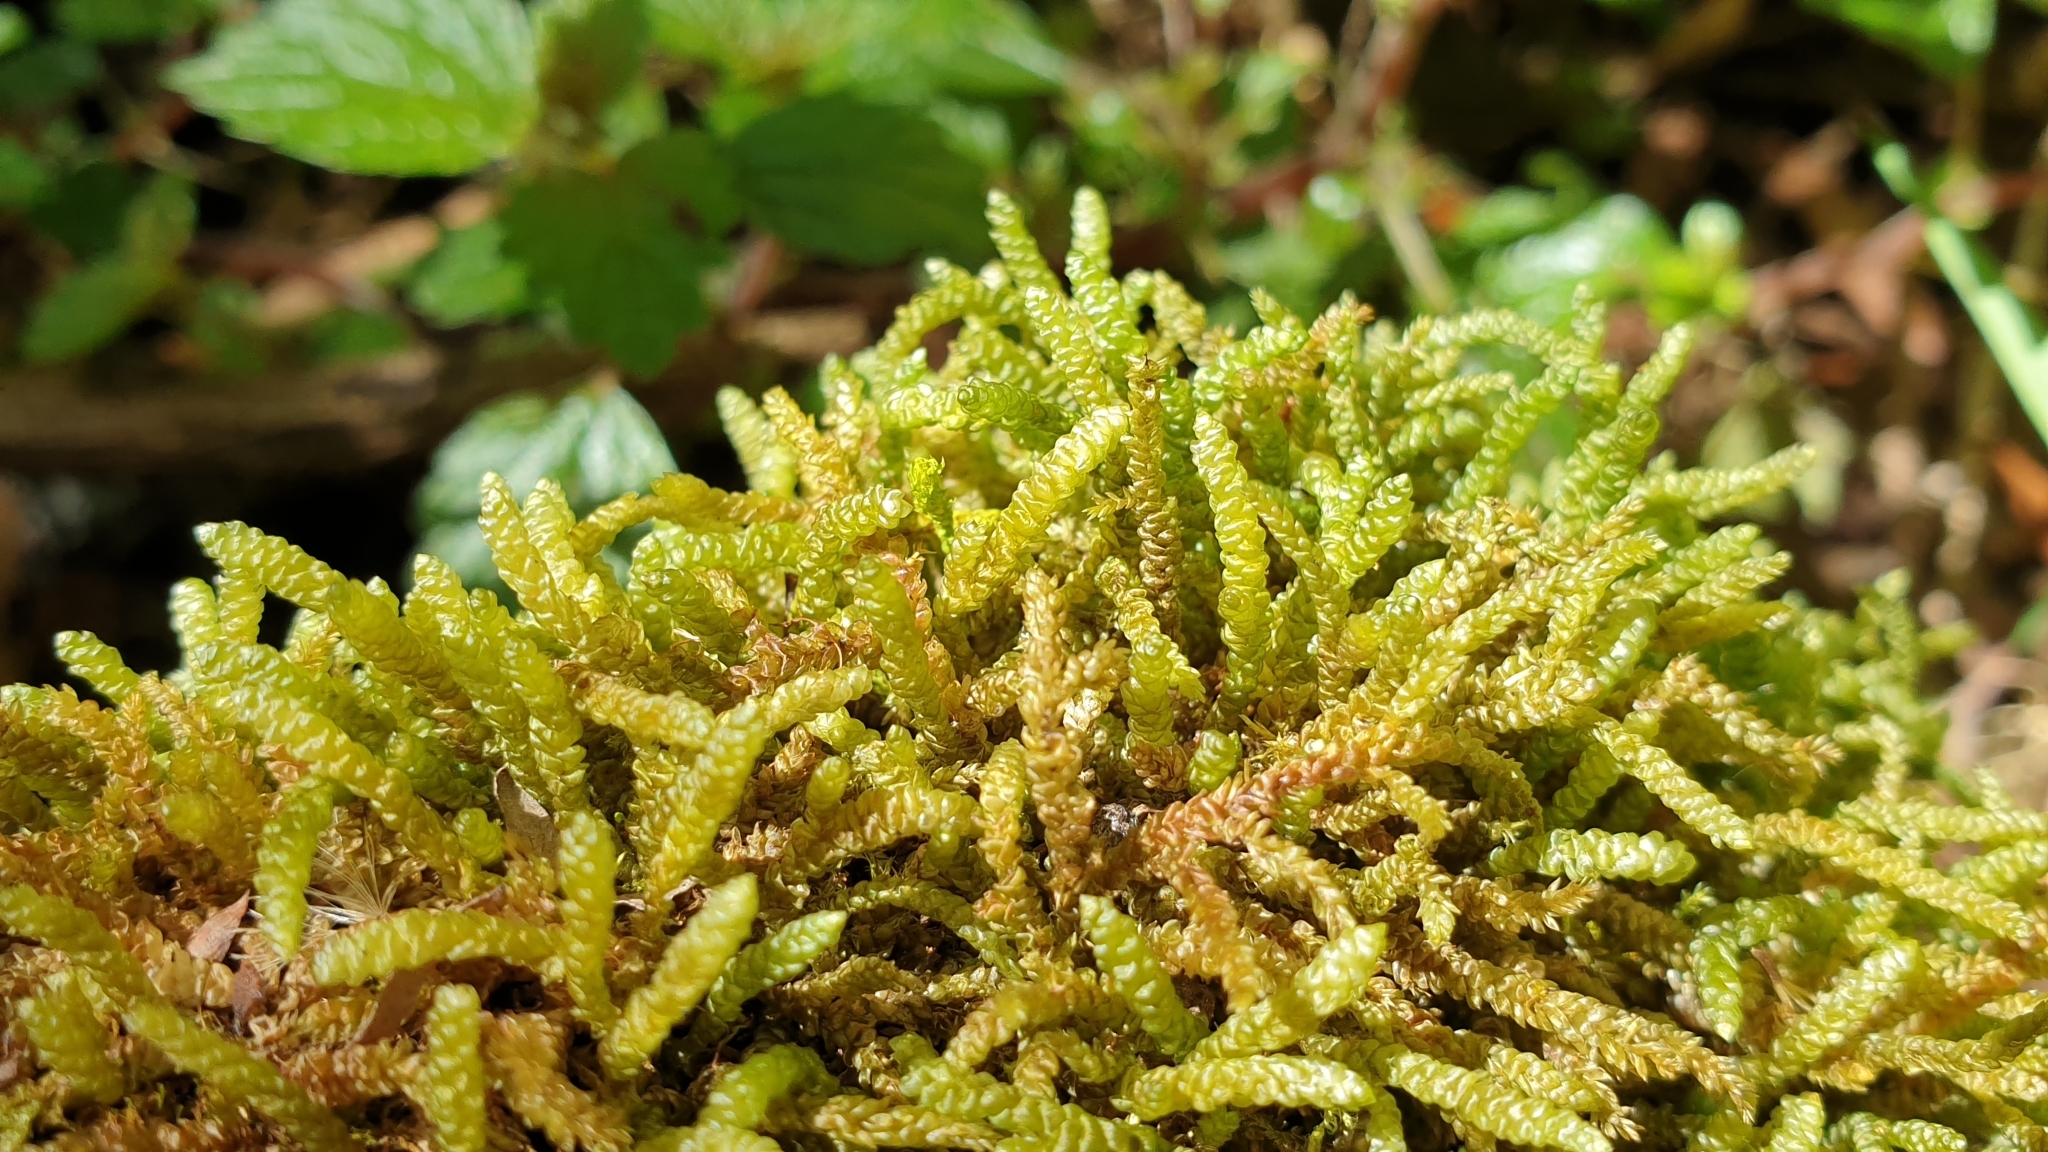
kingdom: Plantae
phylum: Bryophyta
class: Bryopsida
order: Hypnales
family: Lembophyllaceae
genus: Lembophyllum
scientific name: Lembophyllum divulsum
